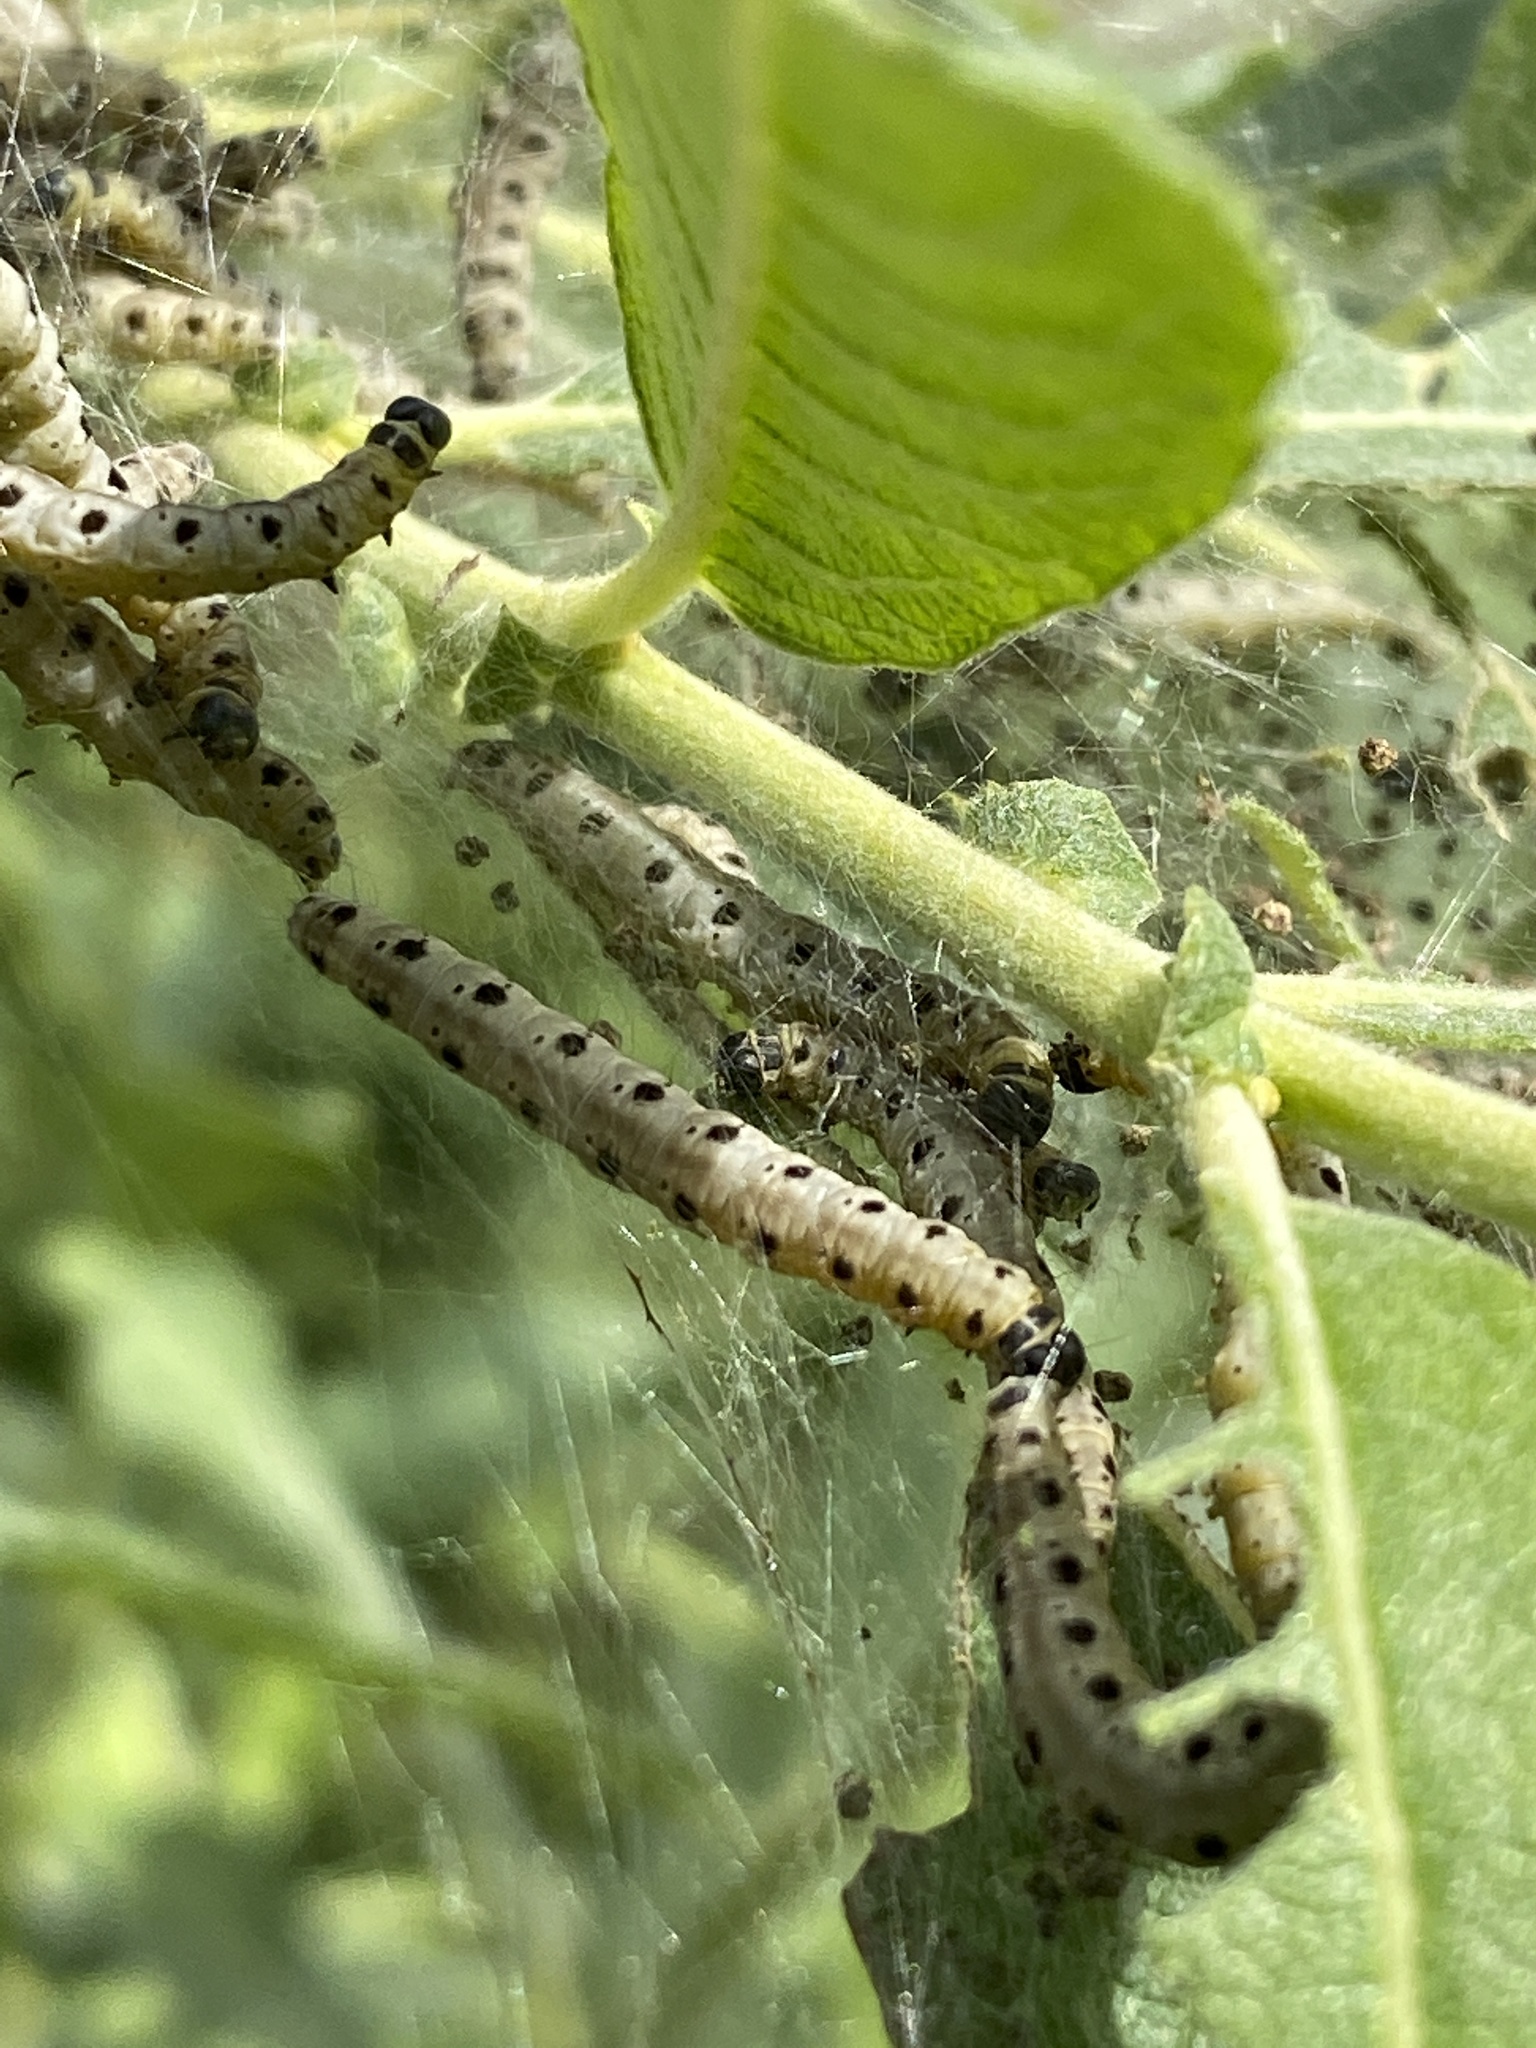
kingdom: Animalia
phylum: Arthropoda
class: Insecta
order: Lepidoptera
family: Yponomeutidae
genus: Yponomeuta
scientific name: Yponomeuta padella
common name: Orchard ermine
